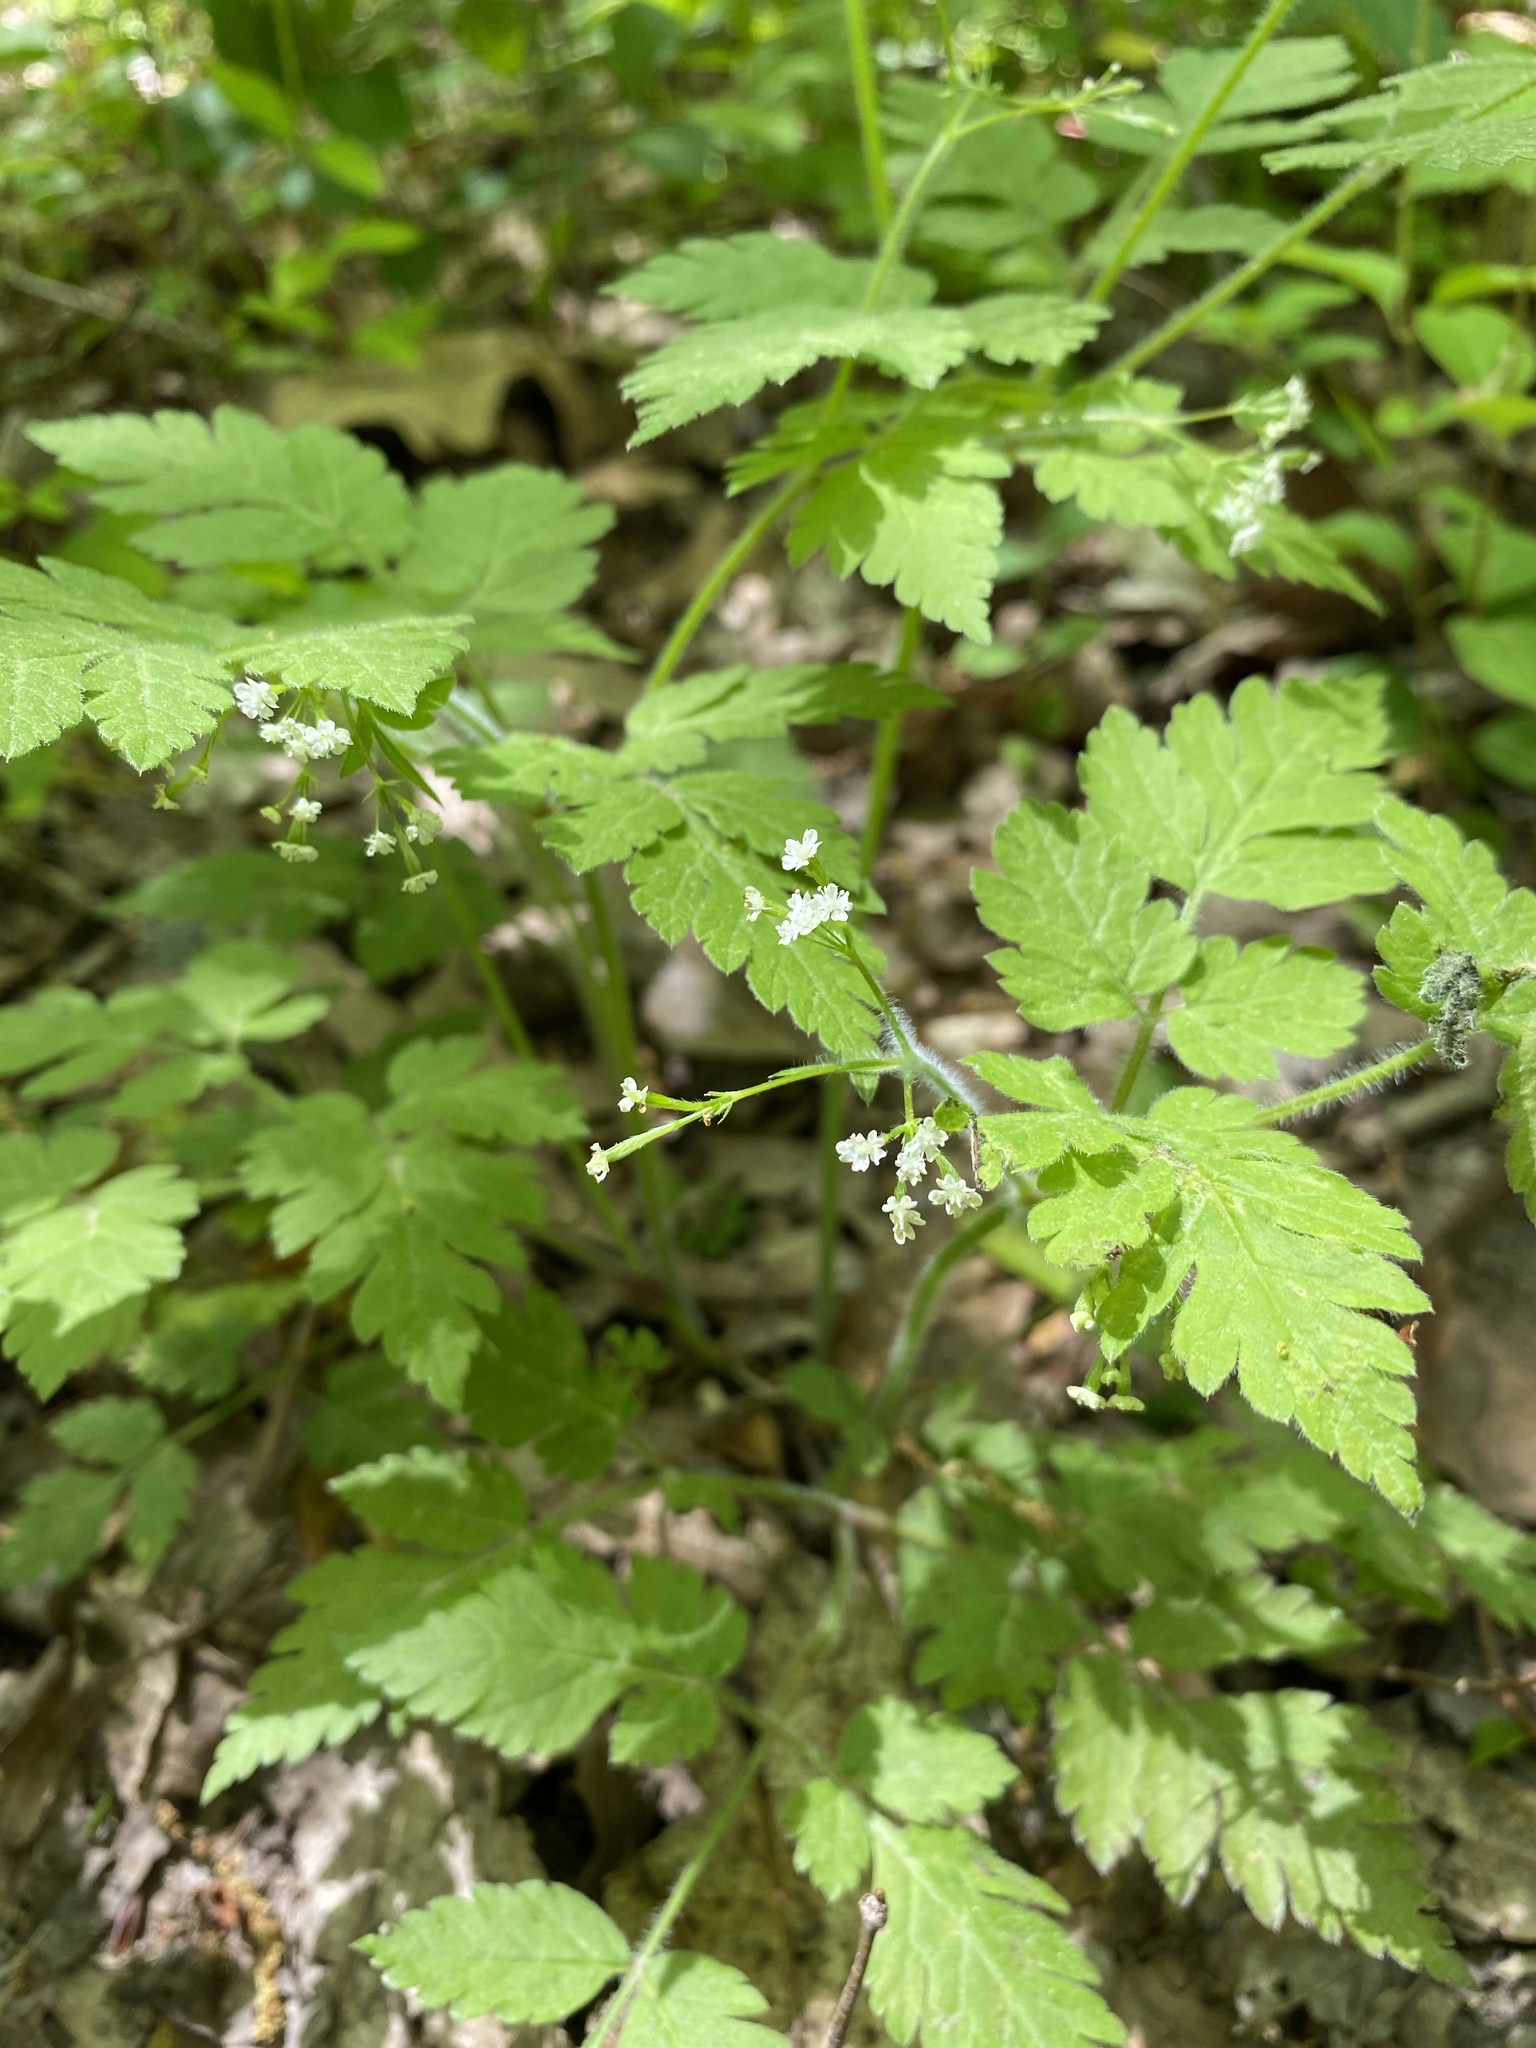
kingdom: Plantae
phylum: Tracheophyta
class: Magnoliopsida
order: Apiales
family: Apiaceae
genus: Osmorhiza
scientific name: Osmorhiza claytonii
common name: Hairy sweet cicely
